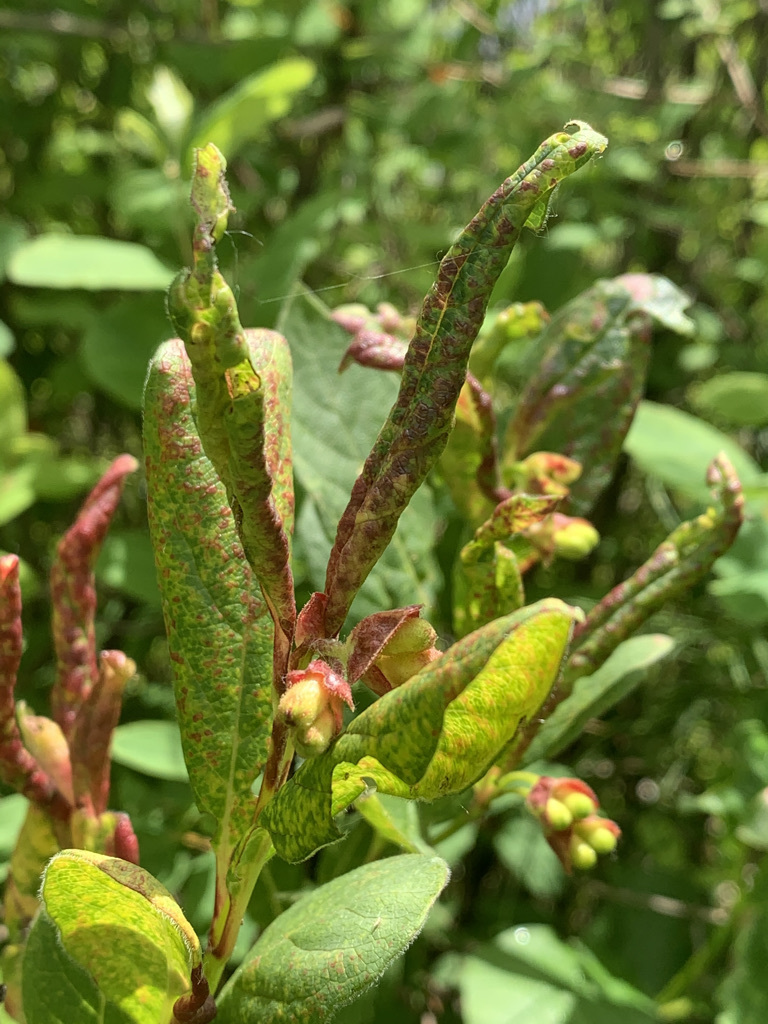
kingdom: Plantae
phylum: Tracheophyta
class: Magnoliopsida
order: Dipsacales
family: Caprifoliaceae
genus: Lonicera
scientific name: Lonicera involucrata
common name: Californian honeysuckle
